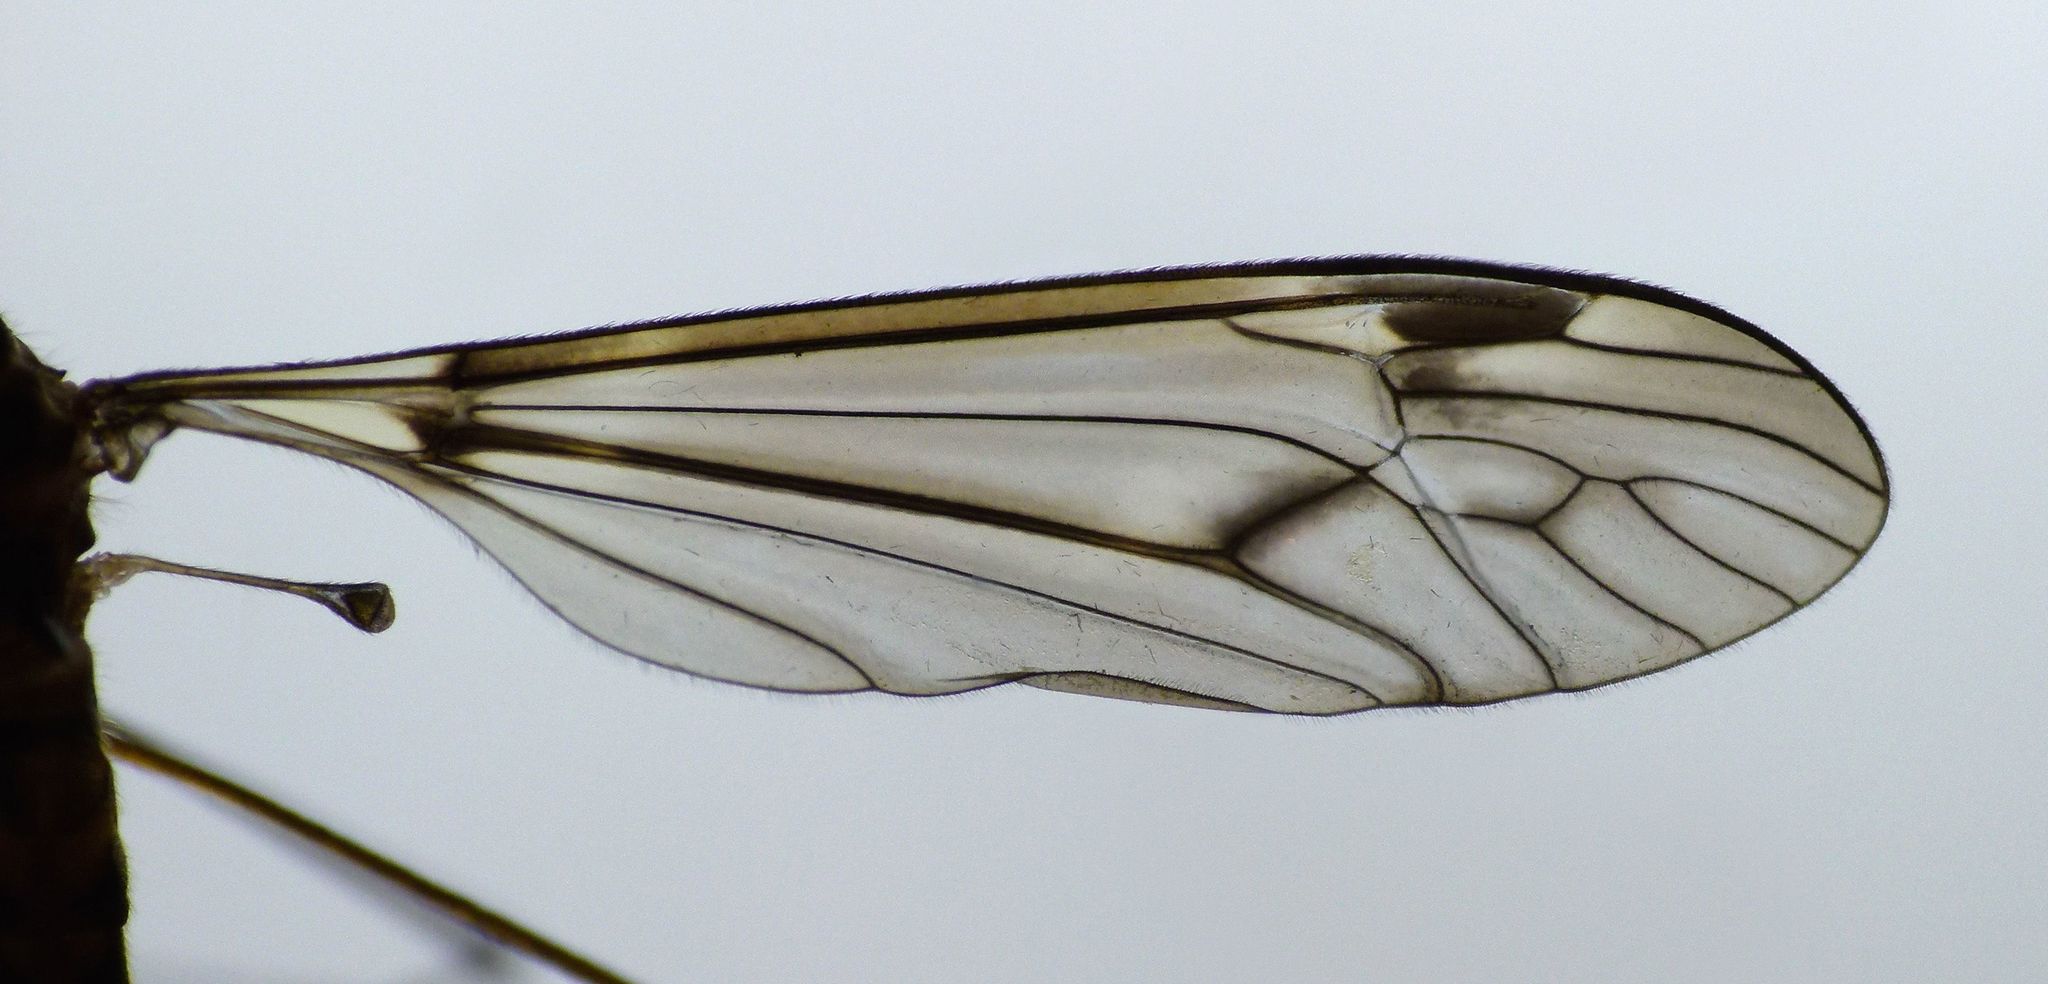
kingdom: Animalia
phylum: Arthropoda
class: Insecta
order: Diptera
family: Tipulidae
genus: Leptotarsus
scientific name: Leptotarsus cubitalis
